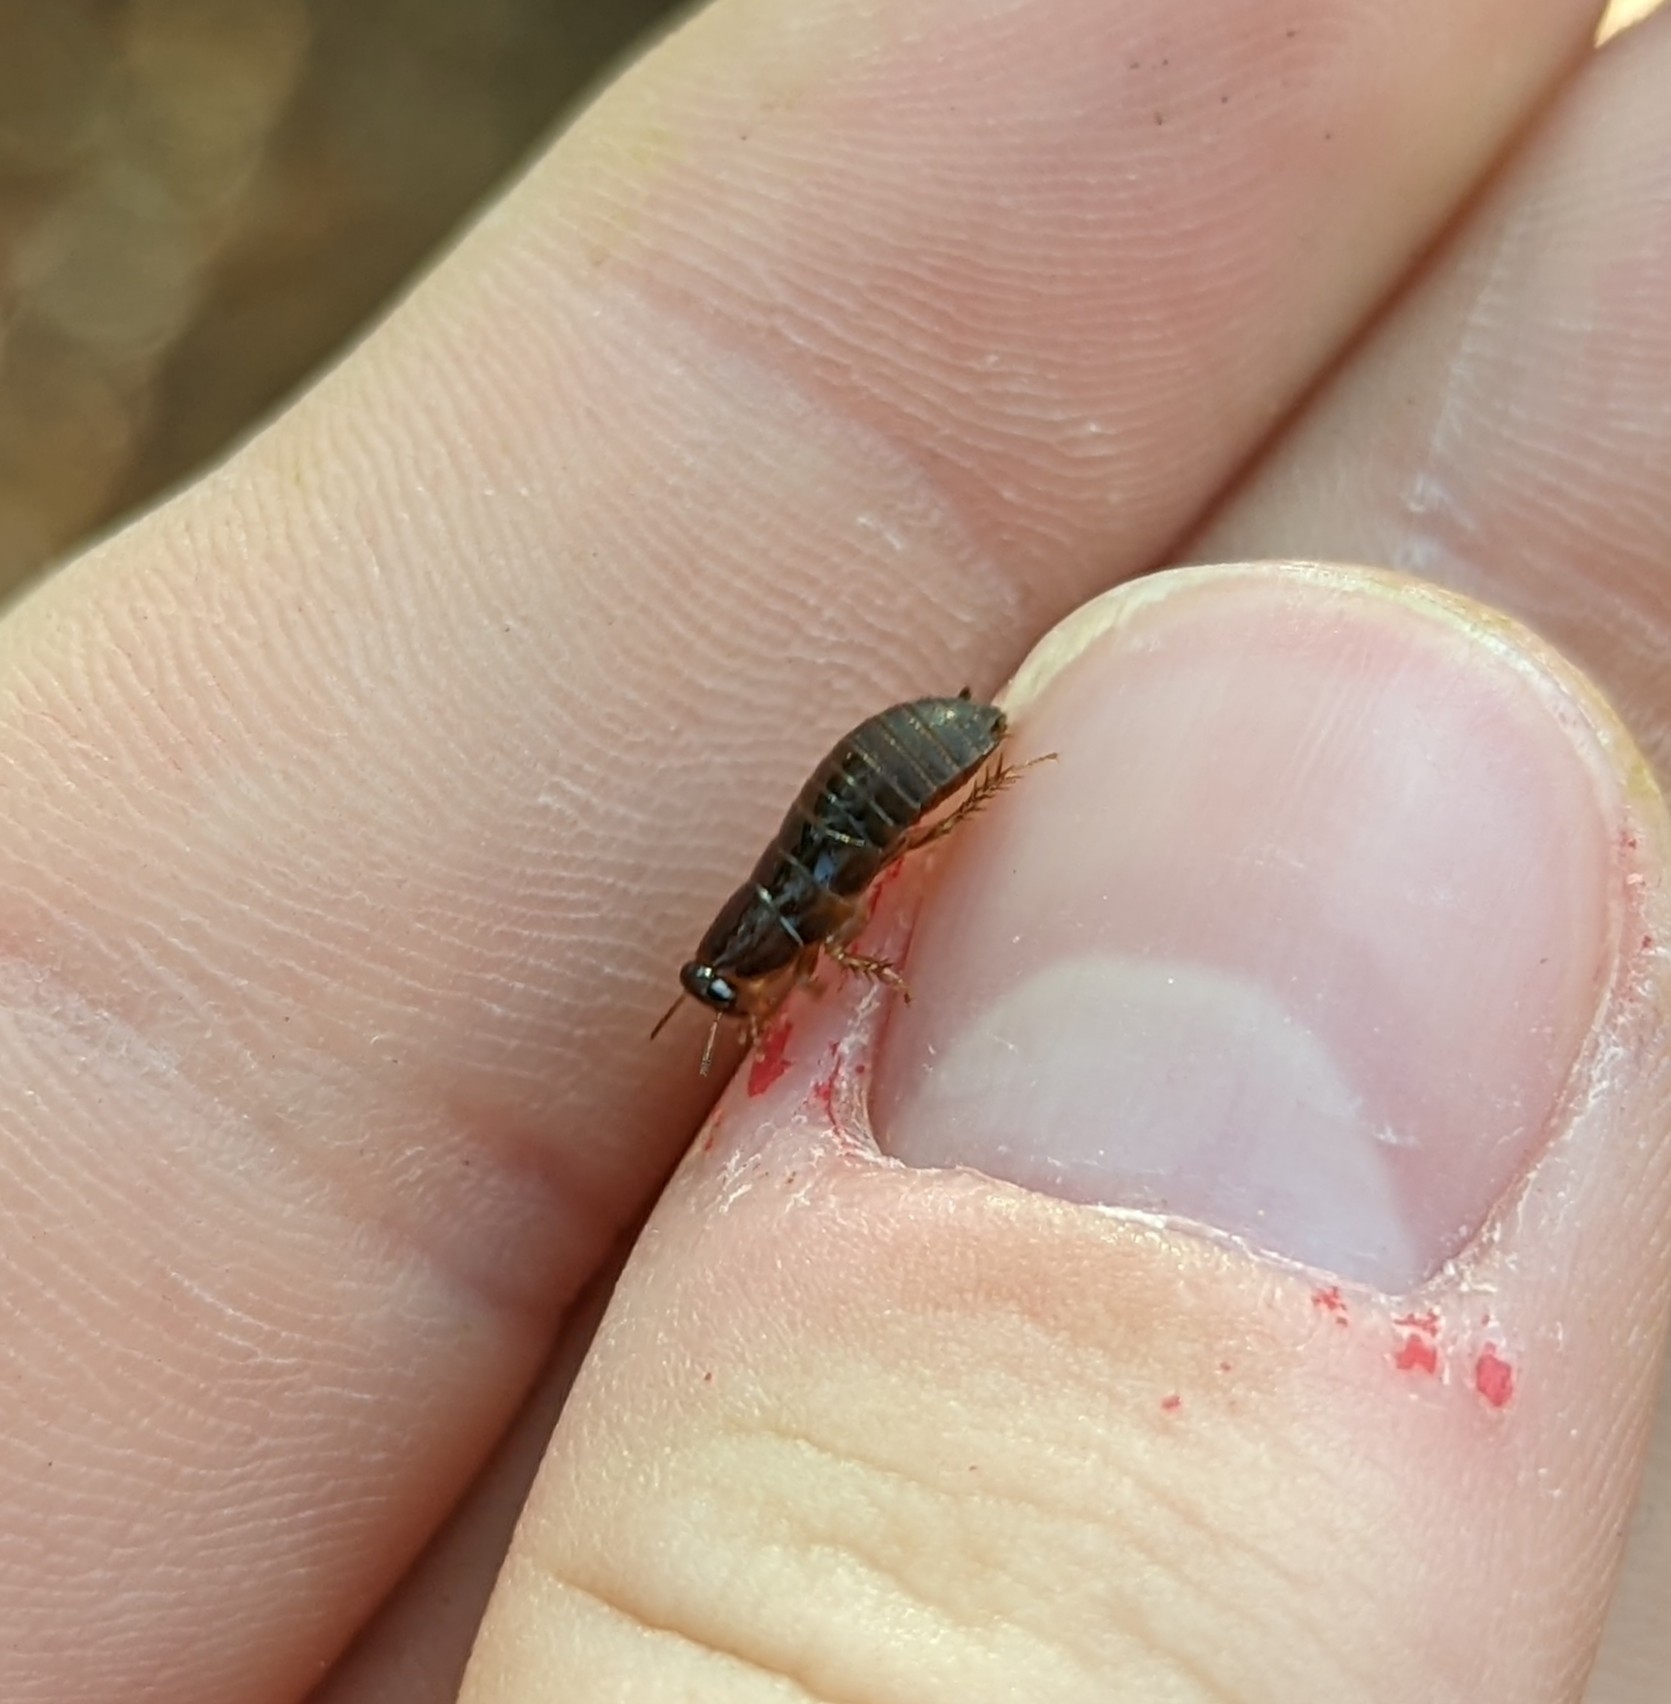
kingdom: Animalia
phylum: Arthropoda
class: Insecta
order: Blattodea
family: Blaberidae
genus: Pycnoscelus
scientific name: Pycnoscelus surinamensis
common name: Surinam cockroach
